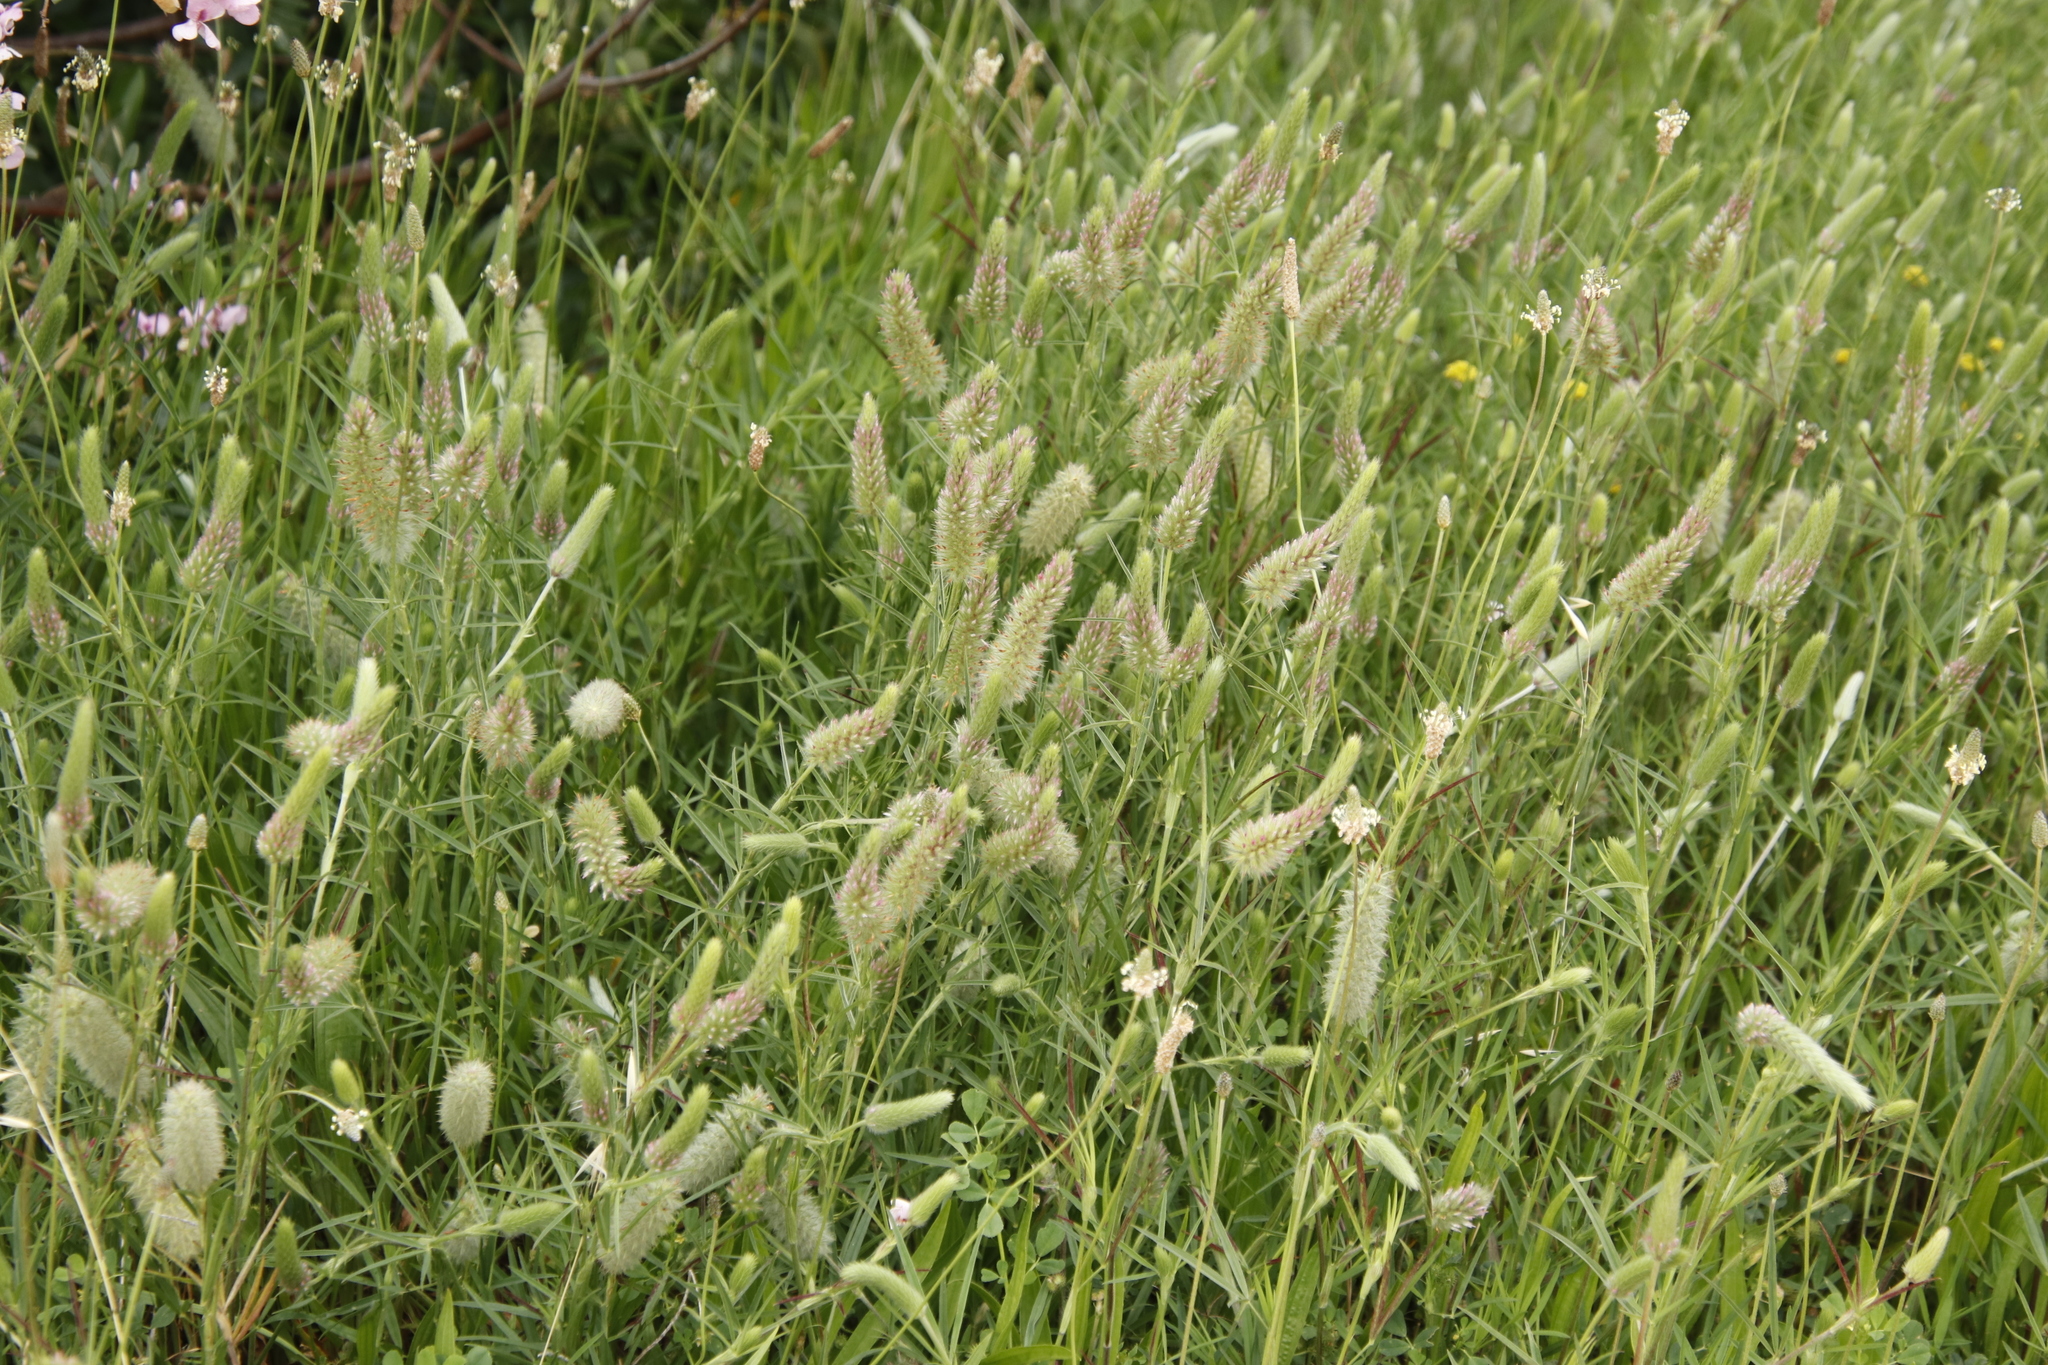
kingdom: Plantae
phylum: Tracheophyta
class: Magnoliopsida
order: Fabales
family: Fabaceae
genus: Trifolium
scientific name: Trifolium angustifolium
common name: Narrow clover
